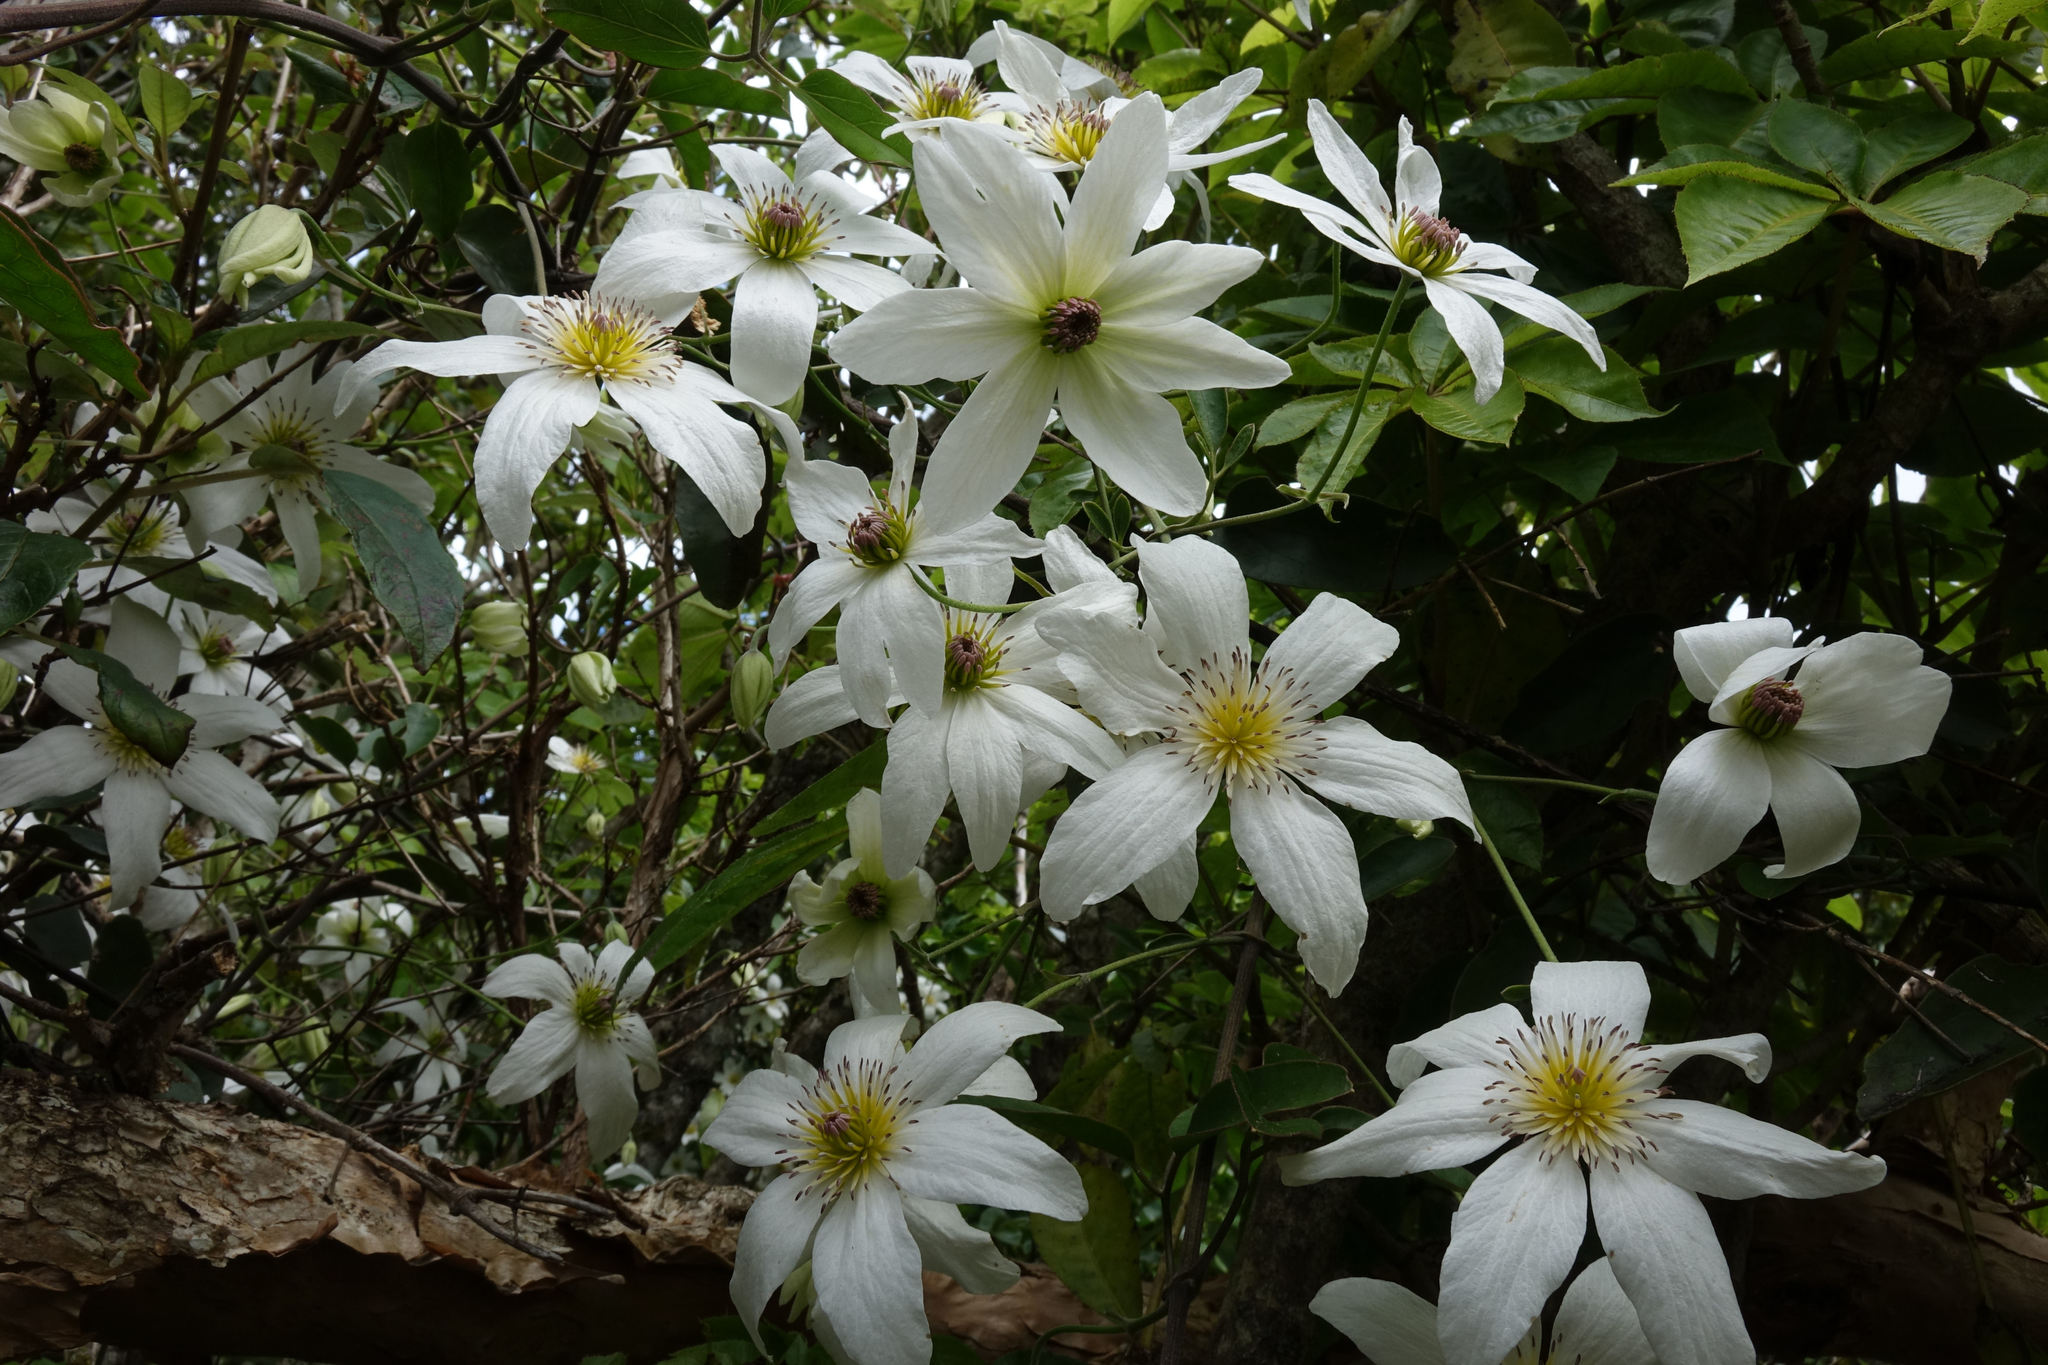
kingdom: Plantae
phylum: Tracheophyta
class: Magnoliopsida
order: Ranunculales
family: Ranunculaceae
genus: Clematis
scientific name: Clematis paniculata
